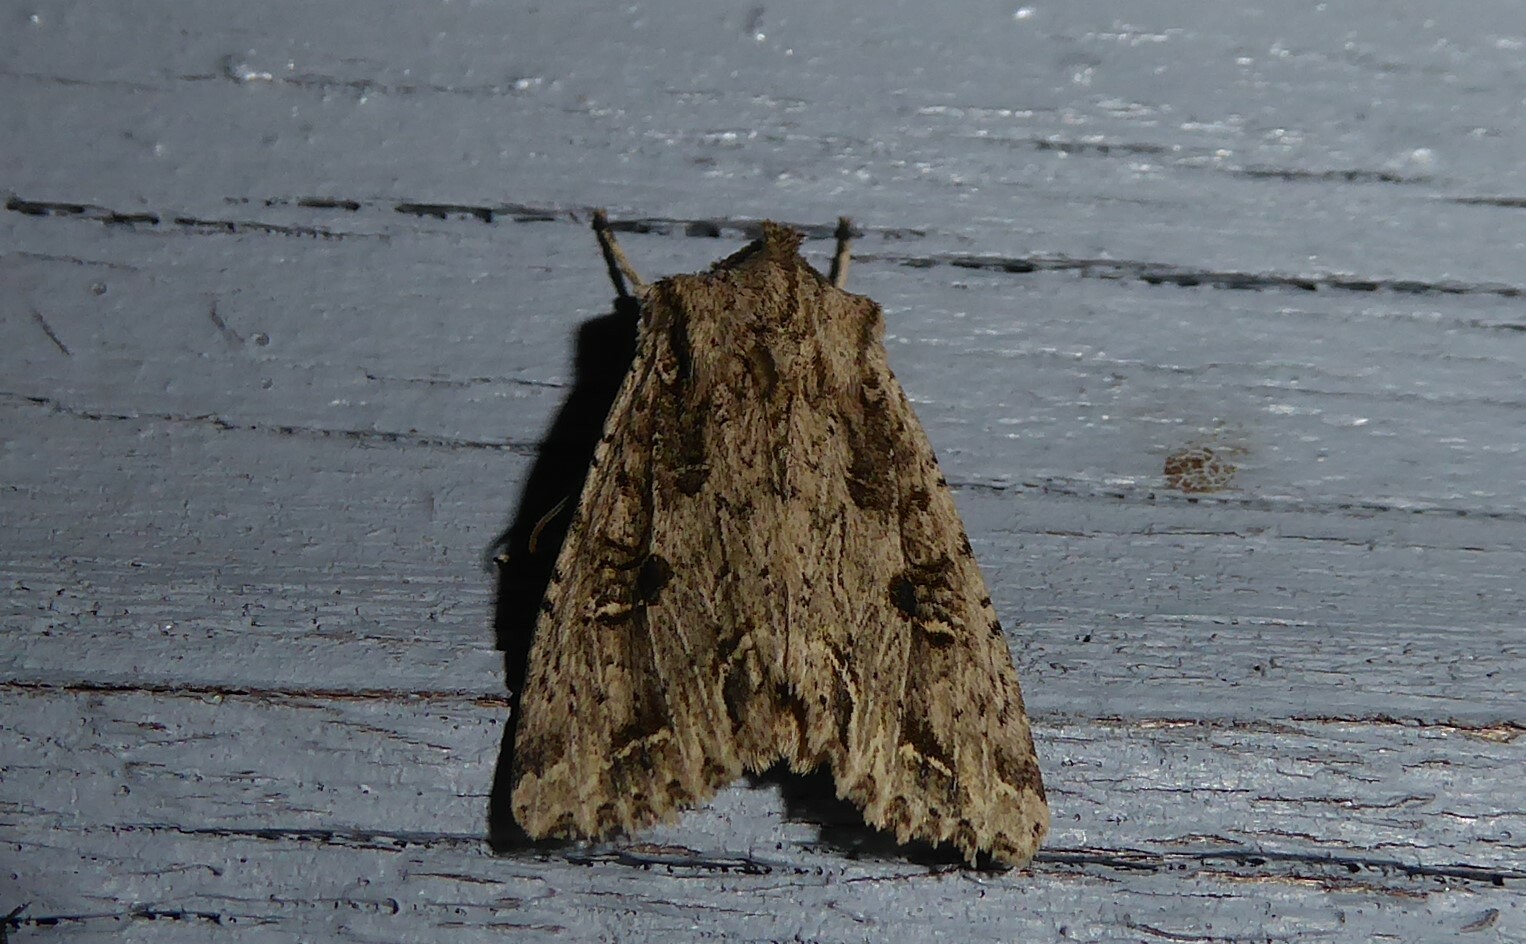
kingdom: Animalia
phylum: Arthropoda
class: Insecta
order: Lepidoptera
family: Noctuidae
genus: Ichneutica
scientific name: Ichneutica lignana
